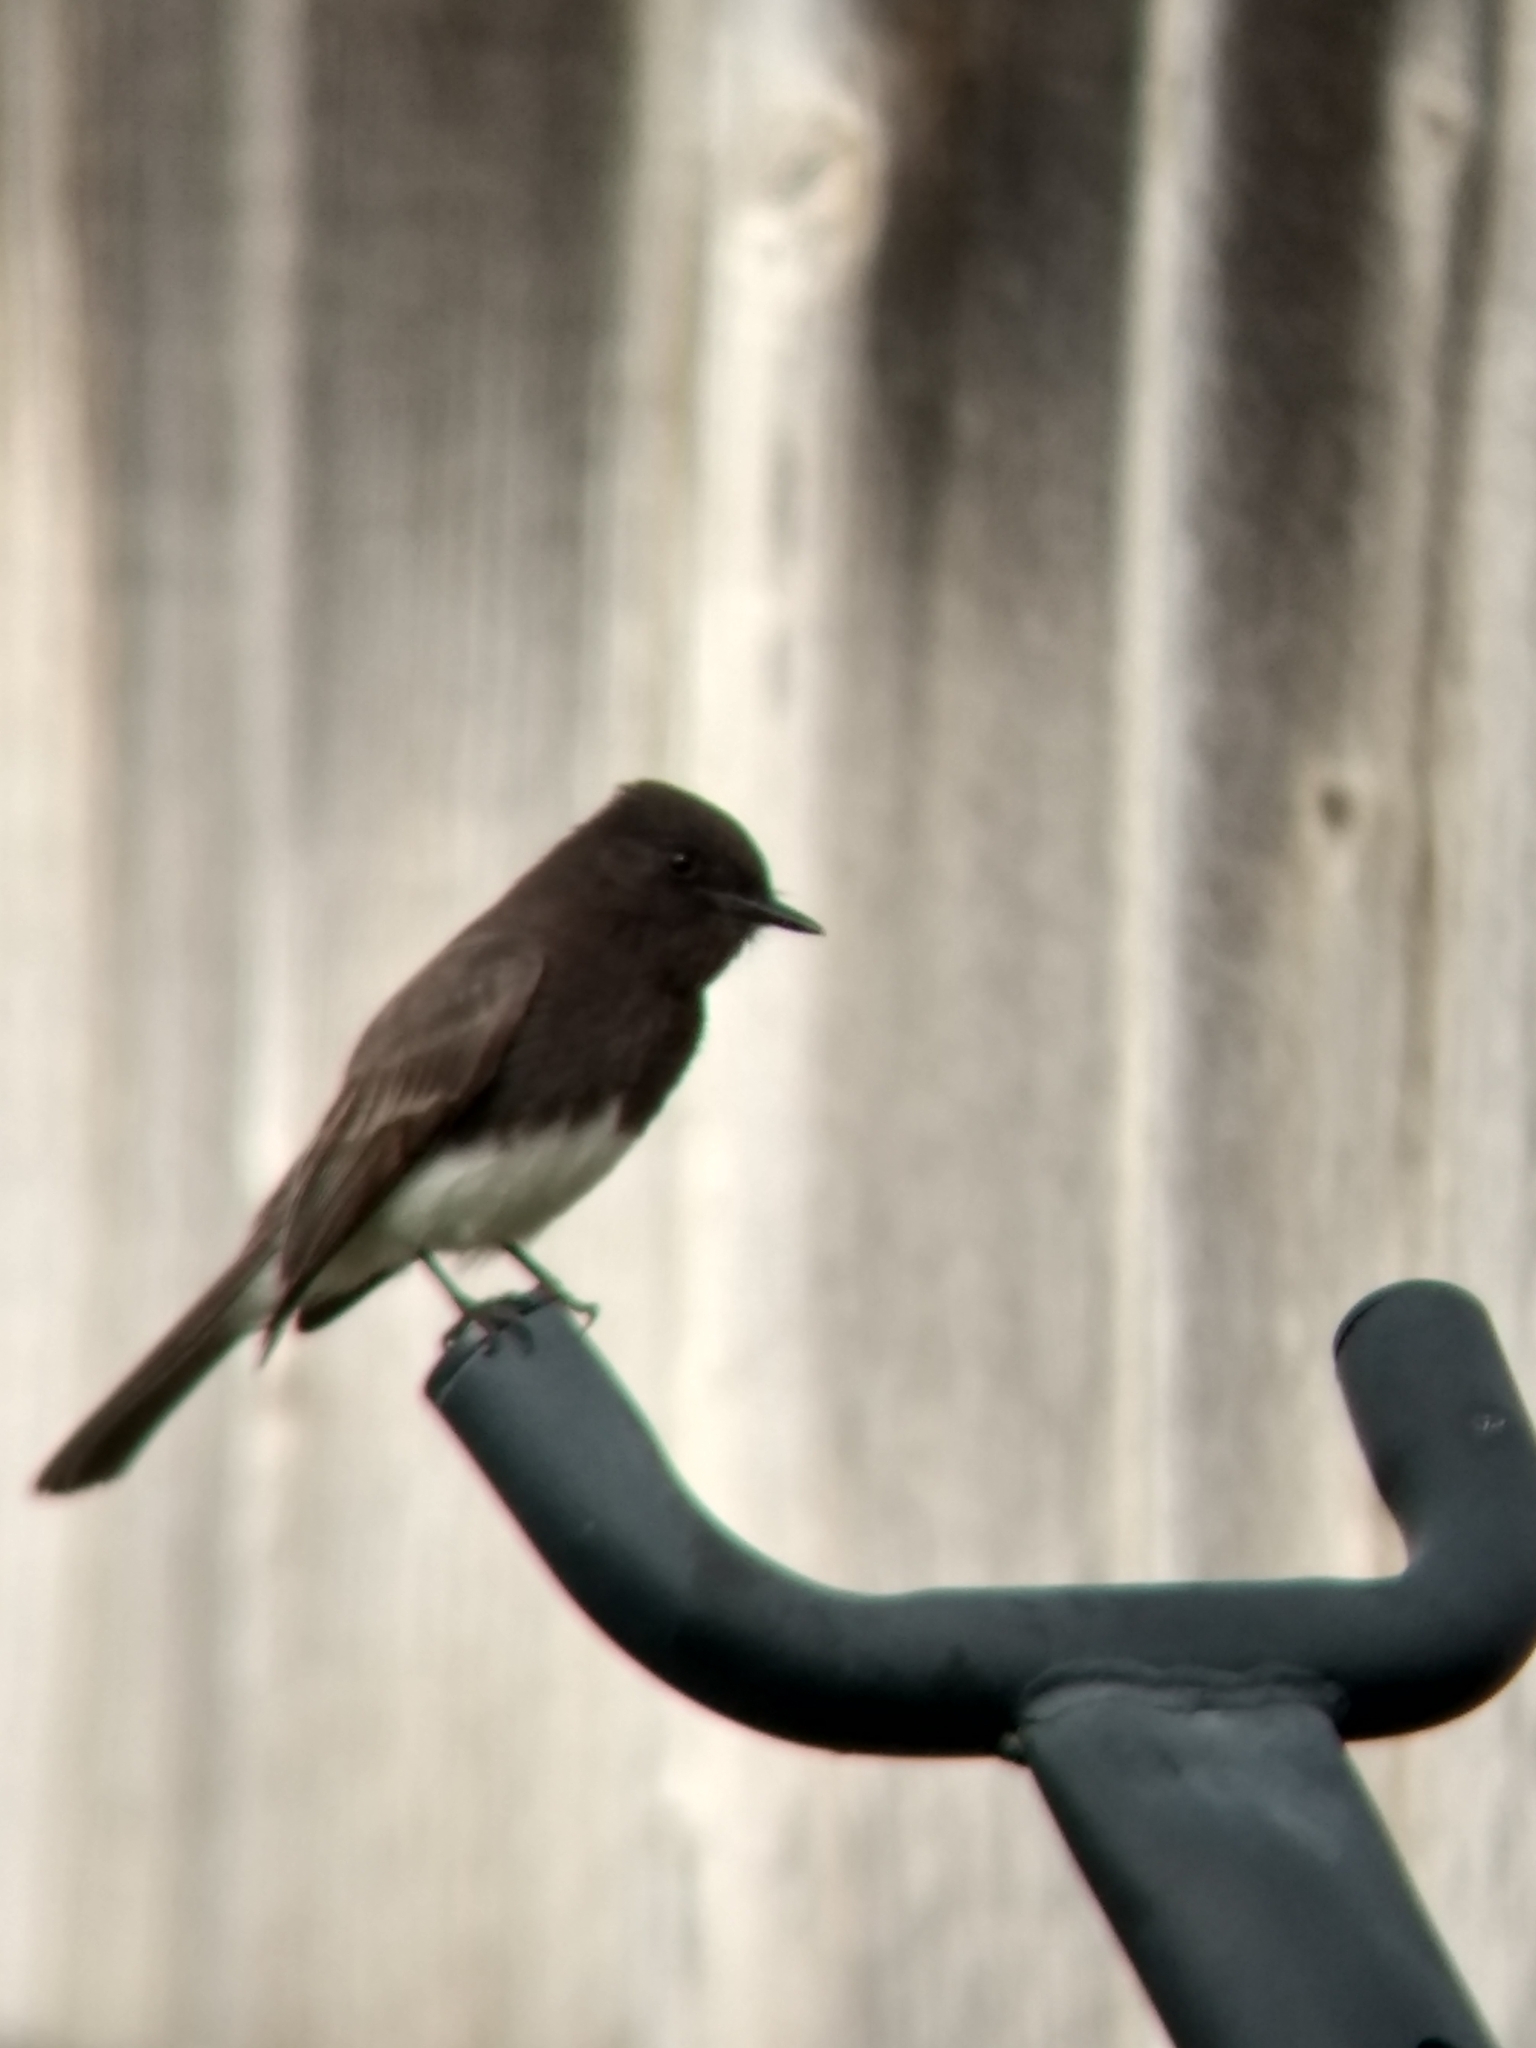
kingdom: Animalia
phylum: Chordata
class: Aves
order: Passeriformes
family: Tyrannidae
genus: Sayornis
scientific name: Sayornis nigricans
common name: Black phoebe
